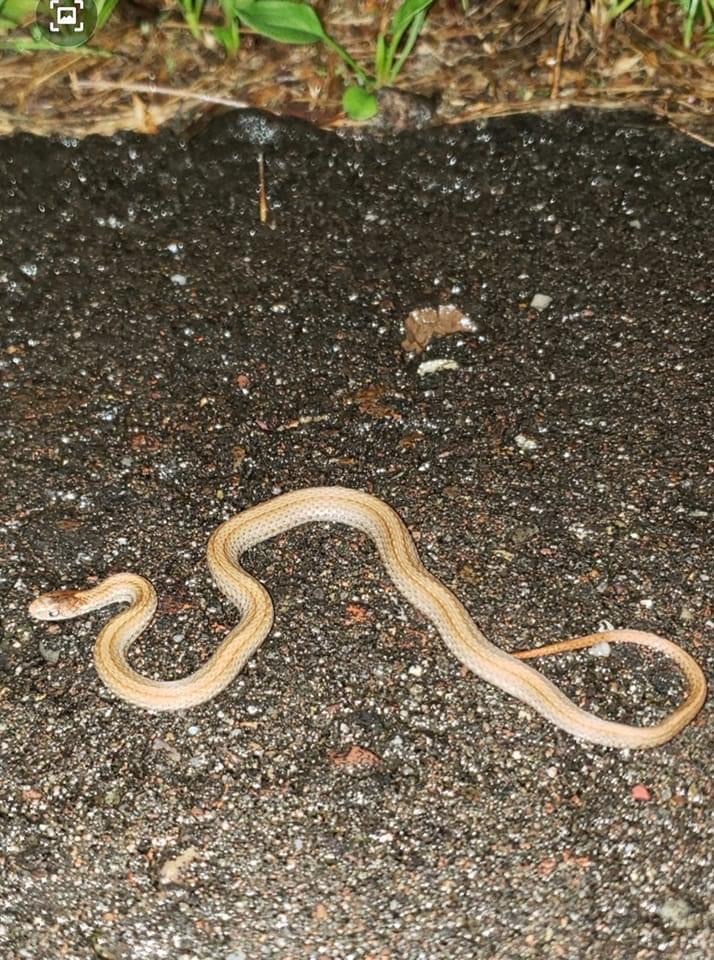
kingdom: Animalia
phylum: Chordata
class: Squamata
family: Colubridae
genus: Storeria
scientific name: Storeria occipitomaculata
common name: Redbelly snake
